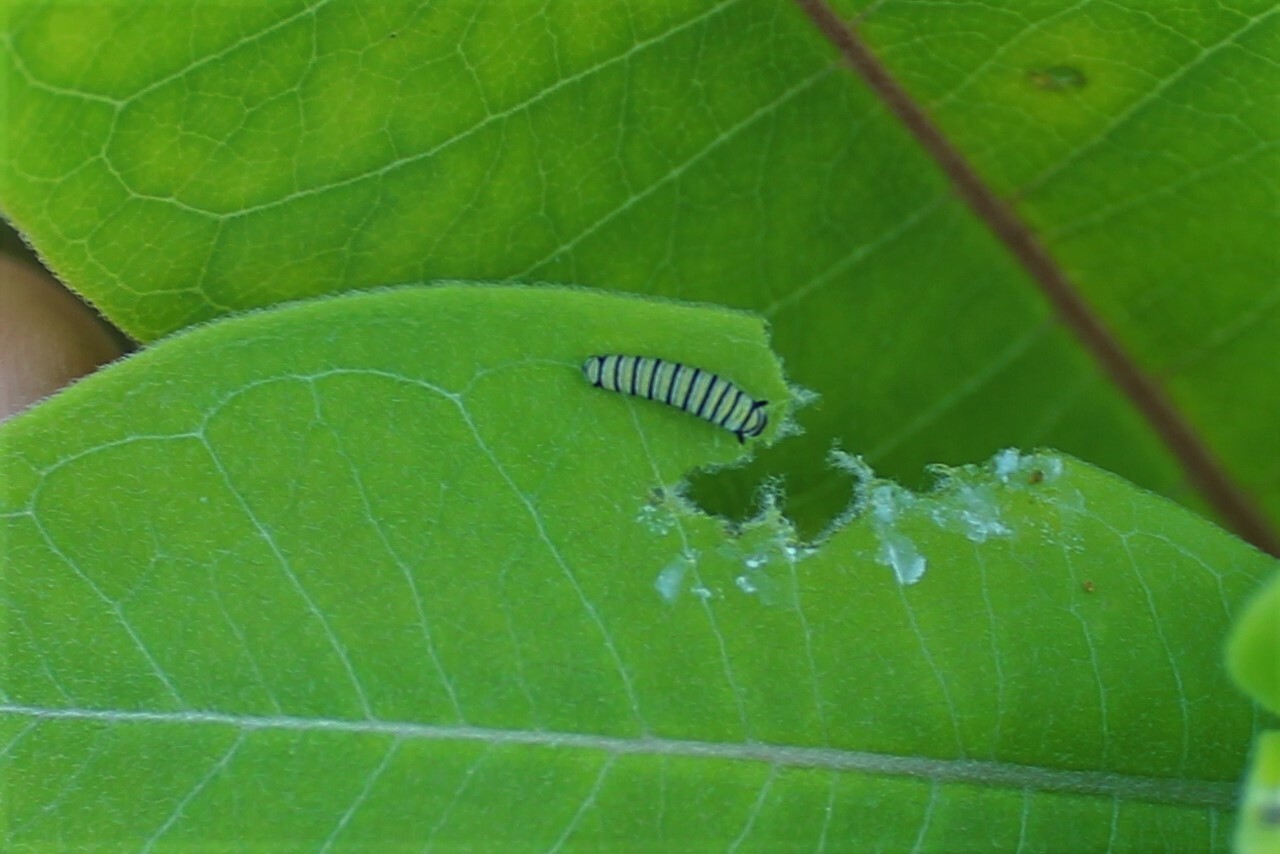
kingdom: Animalia
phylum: Arthropoda
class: Insecta
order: Lepidoptera
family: Nymphalidae
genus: Danaus
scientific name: Danaus plexippus
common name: Monarch
